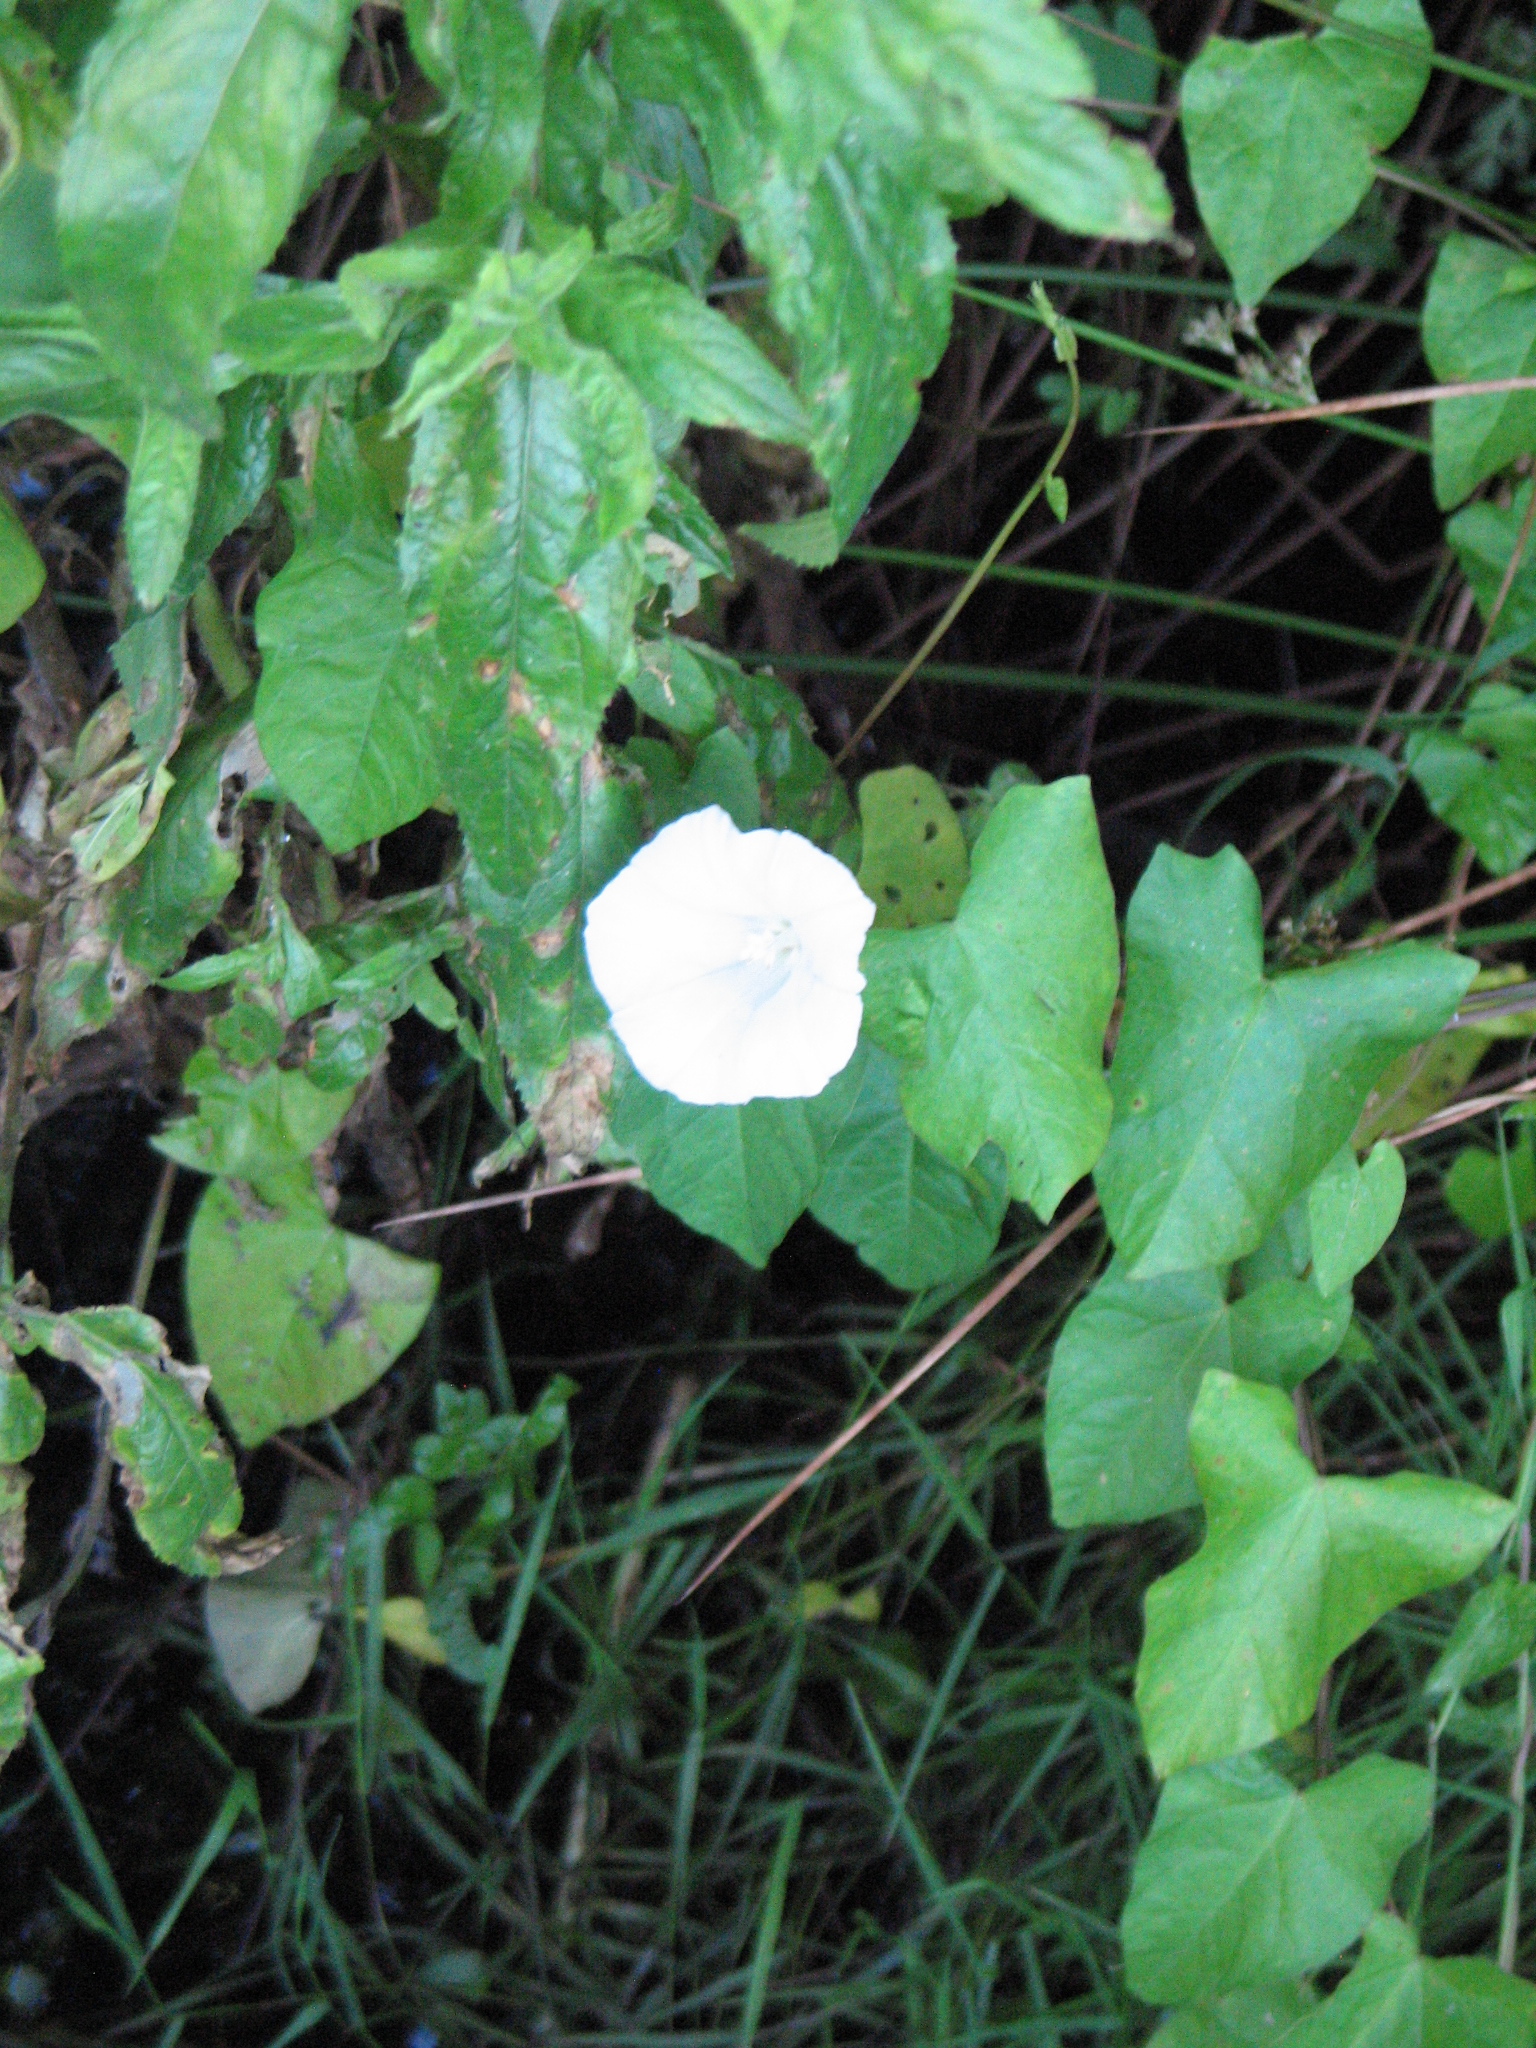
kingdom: Plantae
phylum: Tracheophyta
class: Magnoliopsida
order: Solanales
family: Convolvulaceae
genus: Calystegia
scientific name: Calystegia
